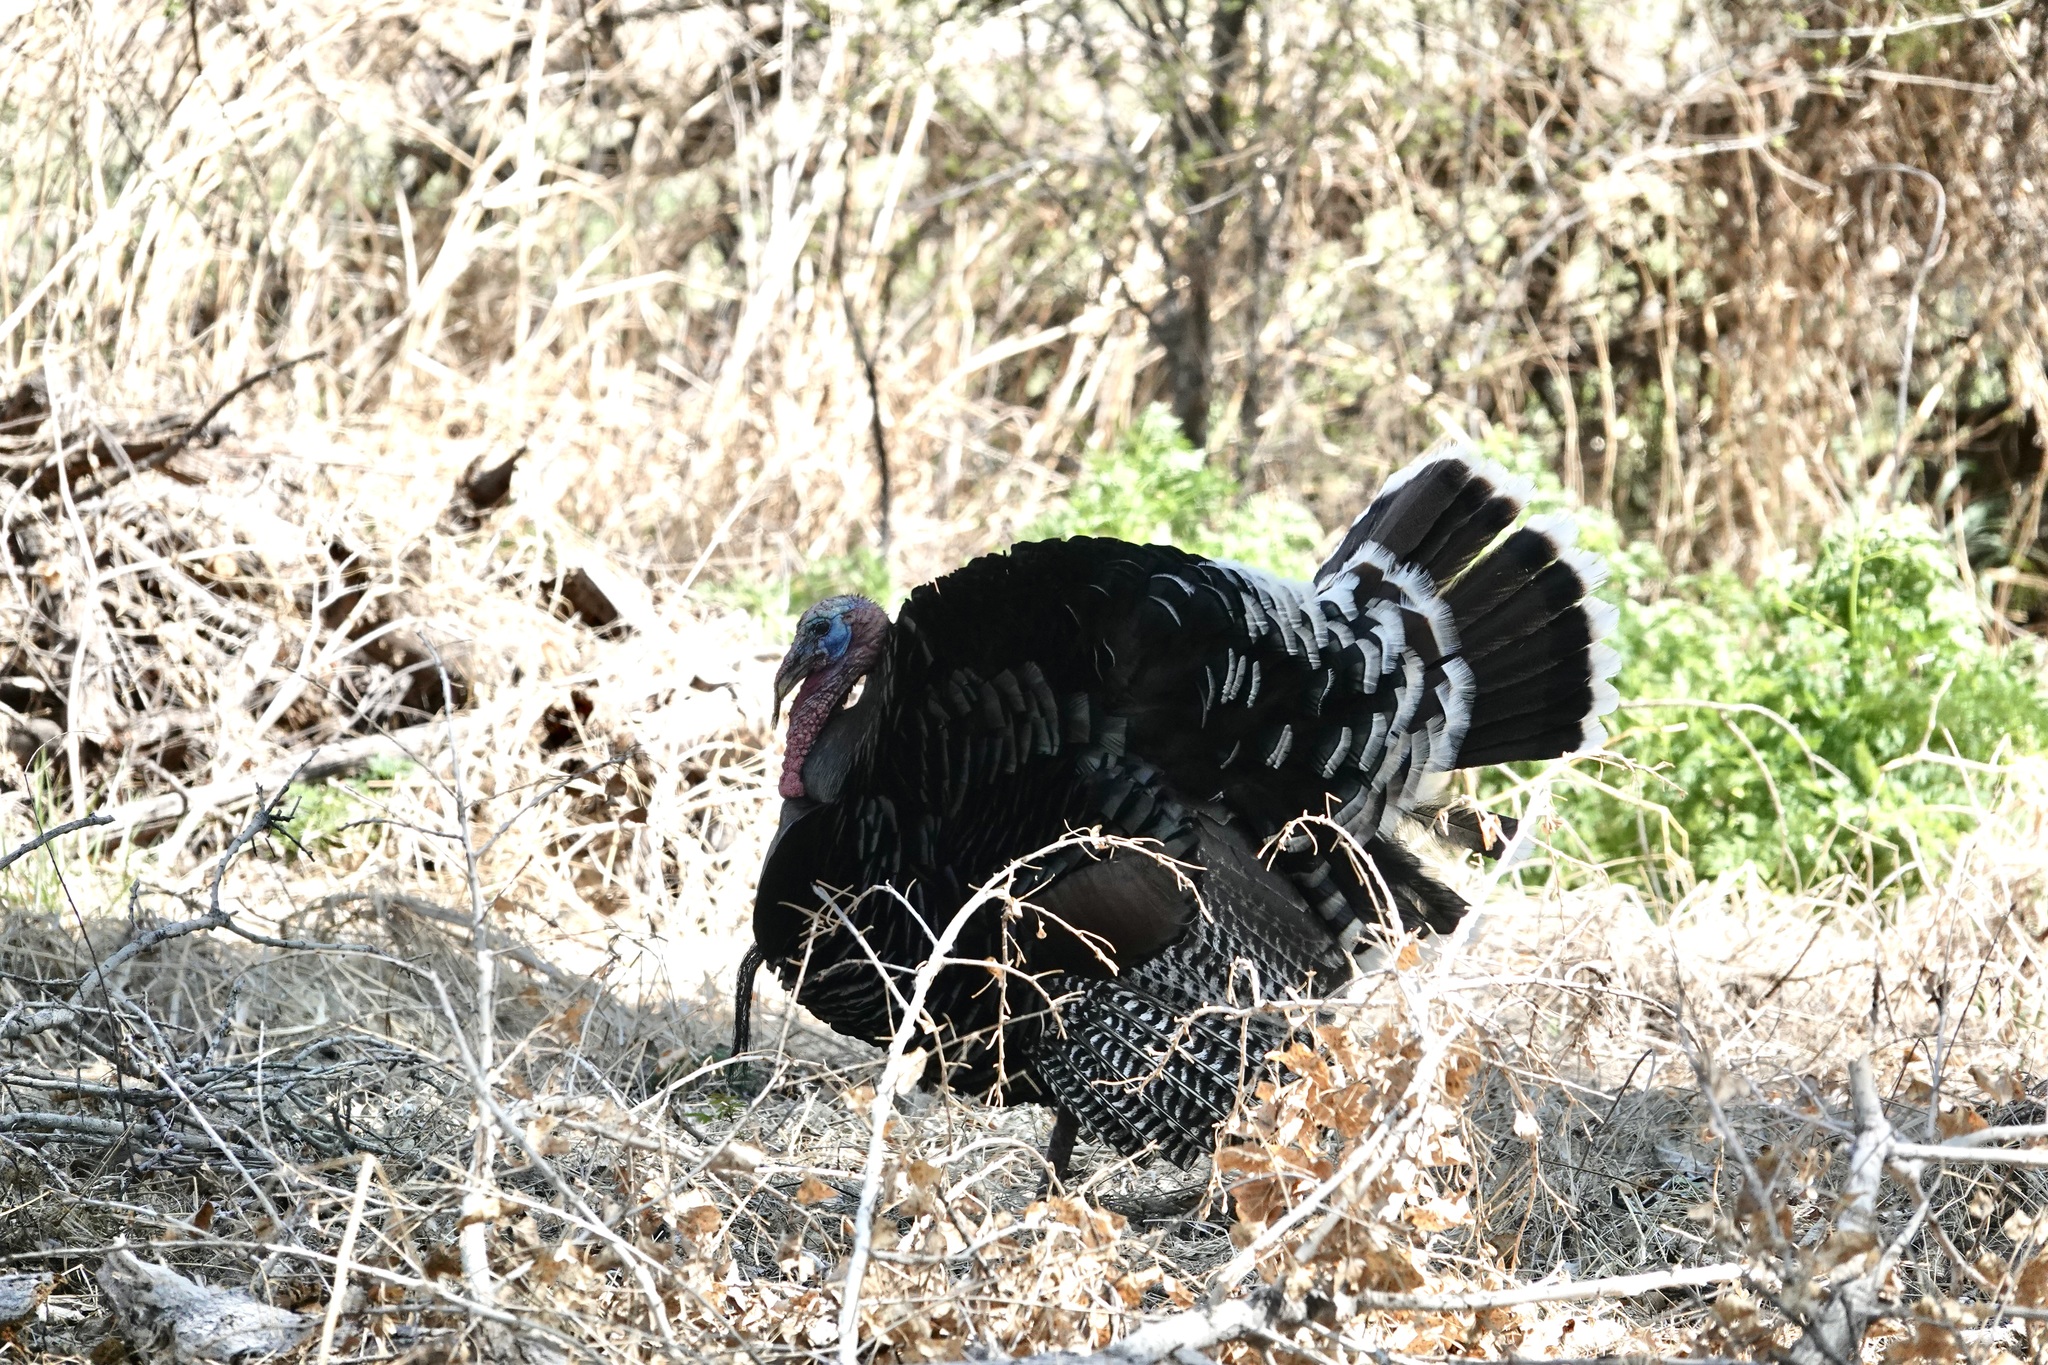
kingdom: Animalia
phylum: Chordata
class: Aves
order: Galliformes
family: Phasianidae
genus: Meleagris
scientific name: Meleagris gallopavo
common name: Wild turkey
